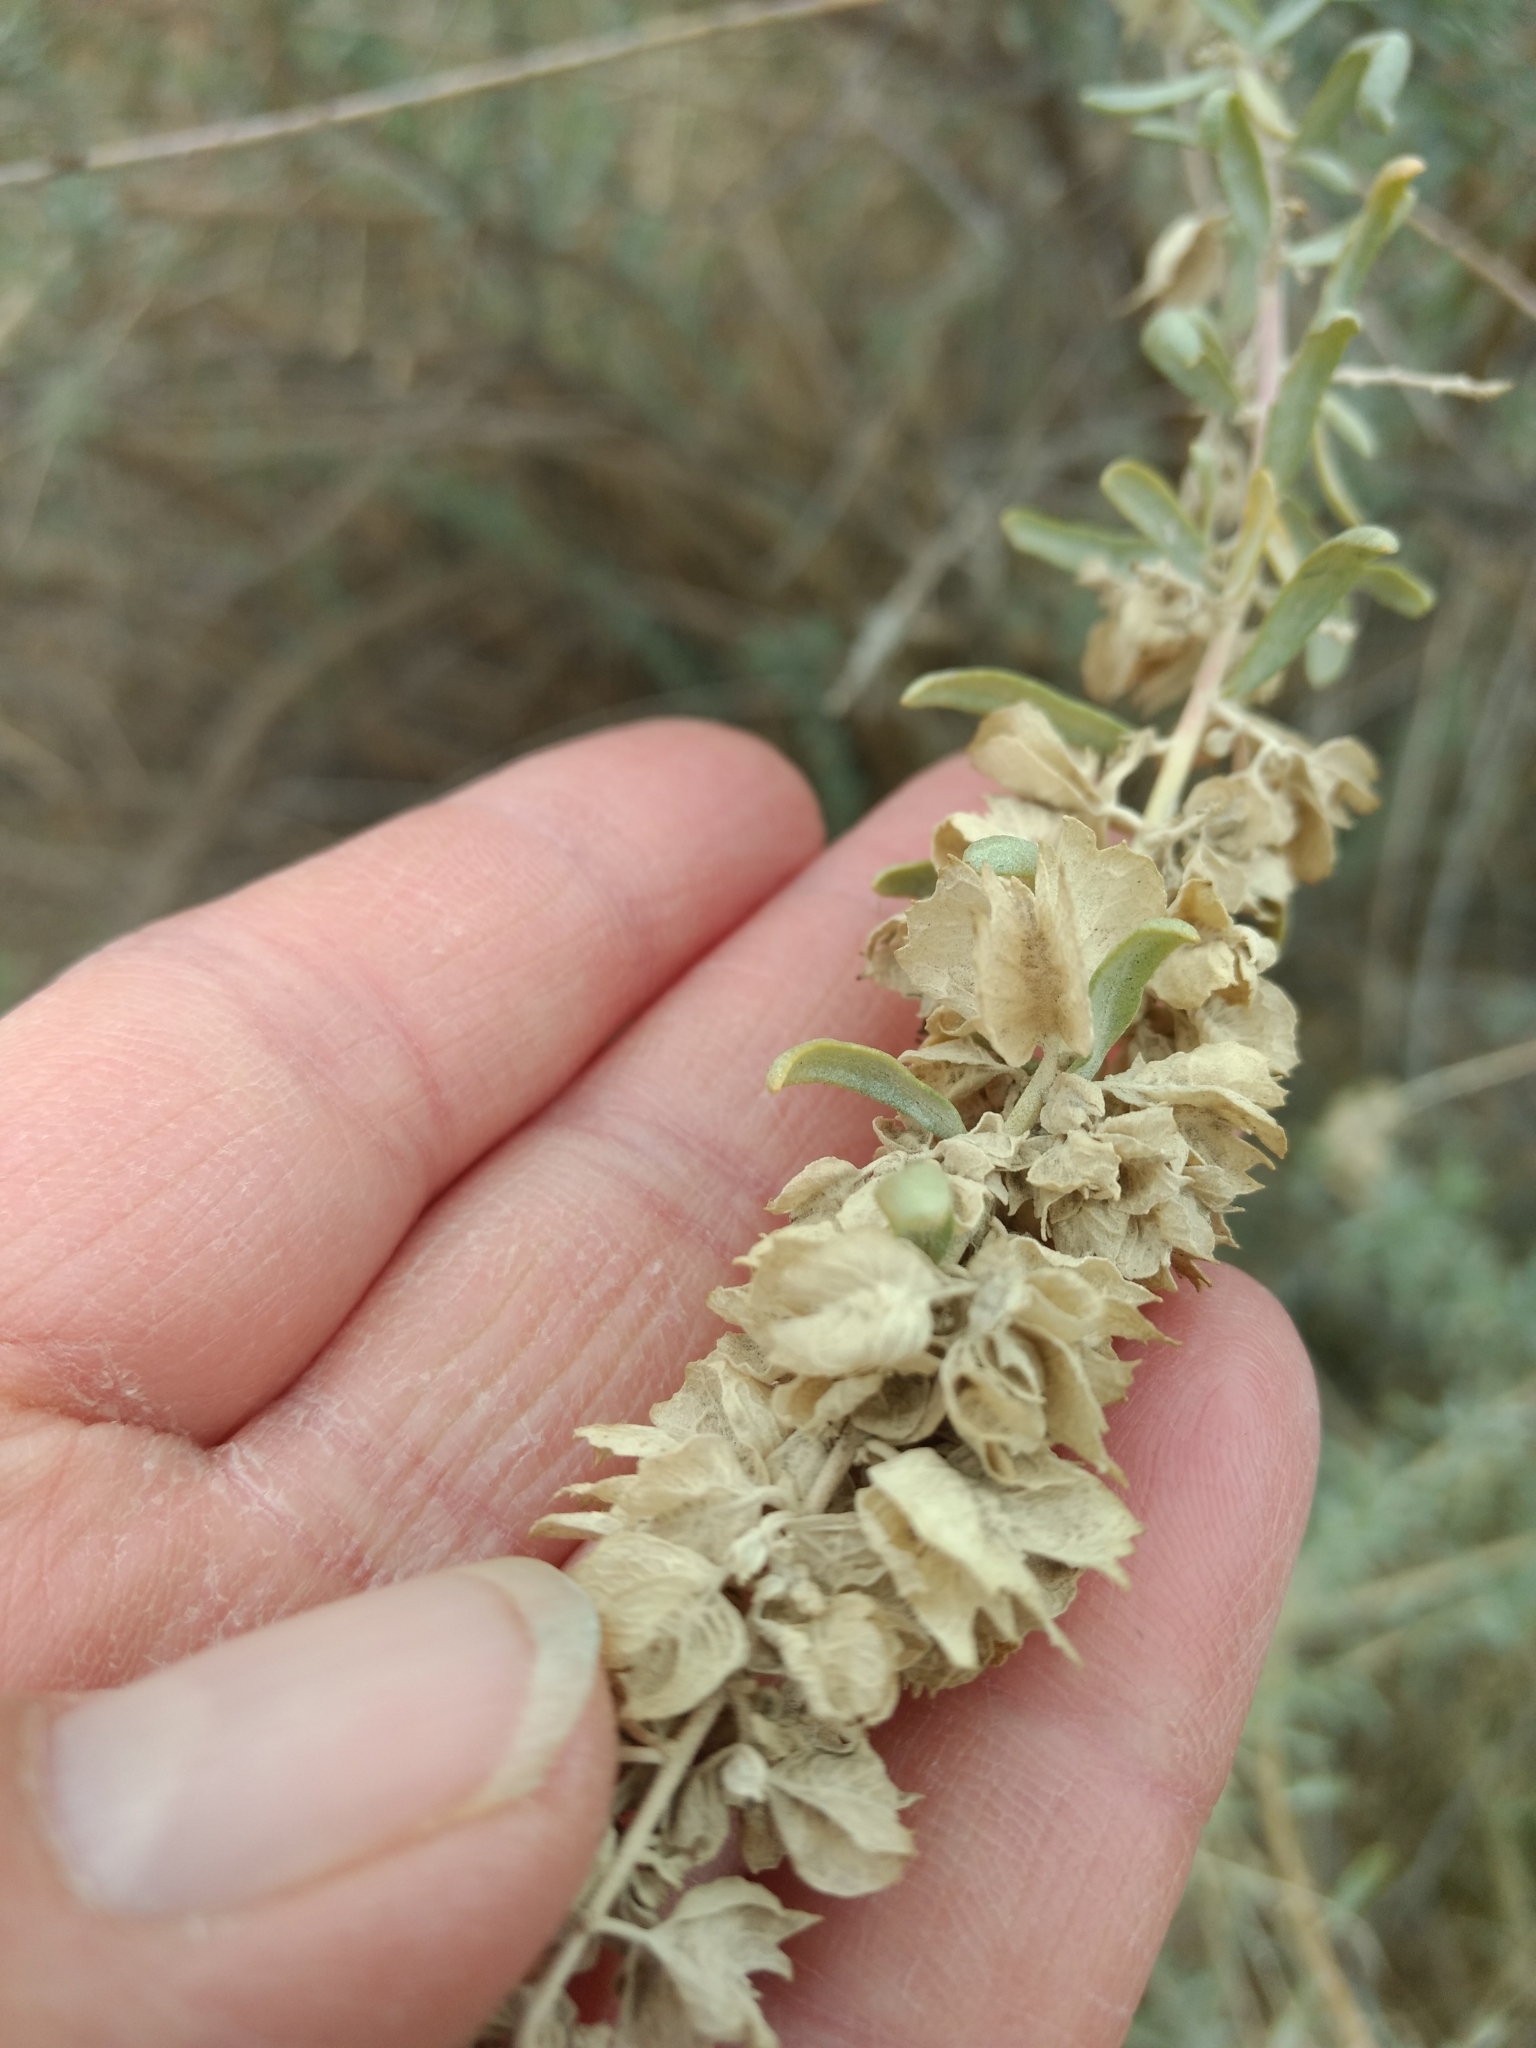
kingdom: Plantae
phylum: Tracheophyta
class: Magnoliopsida
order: Caryophyllales
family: Amaranthaceae
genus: Atriplex
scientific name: Atriplex canescens
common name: Four-wing saltbush
